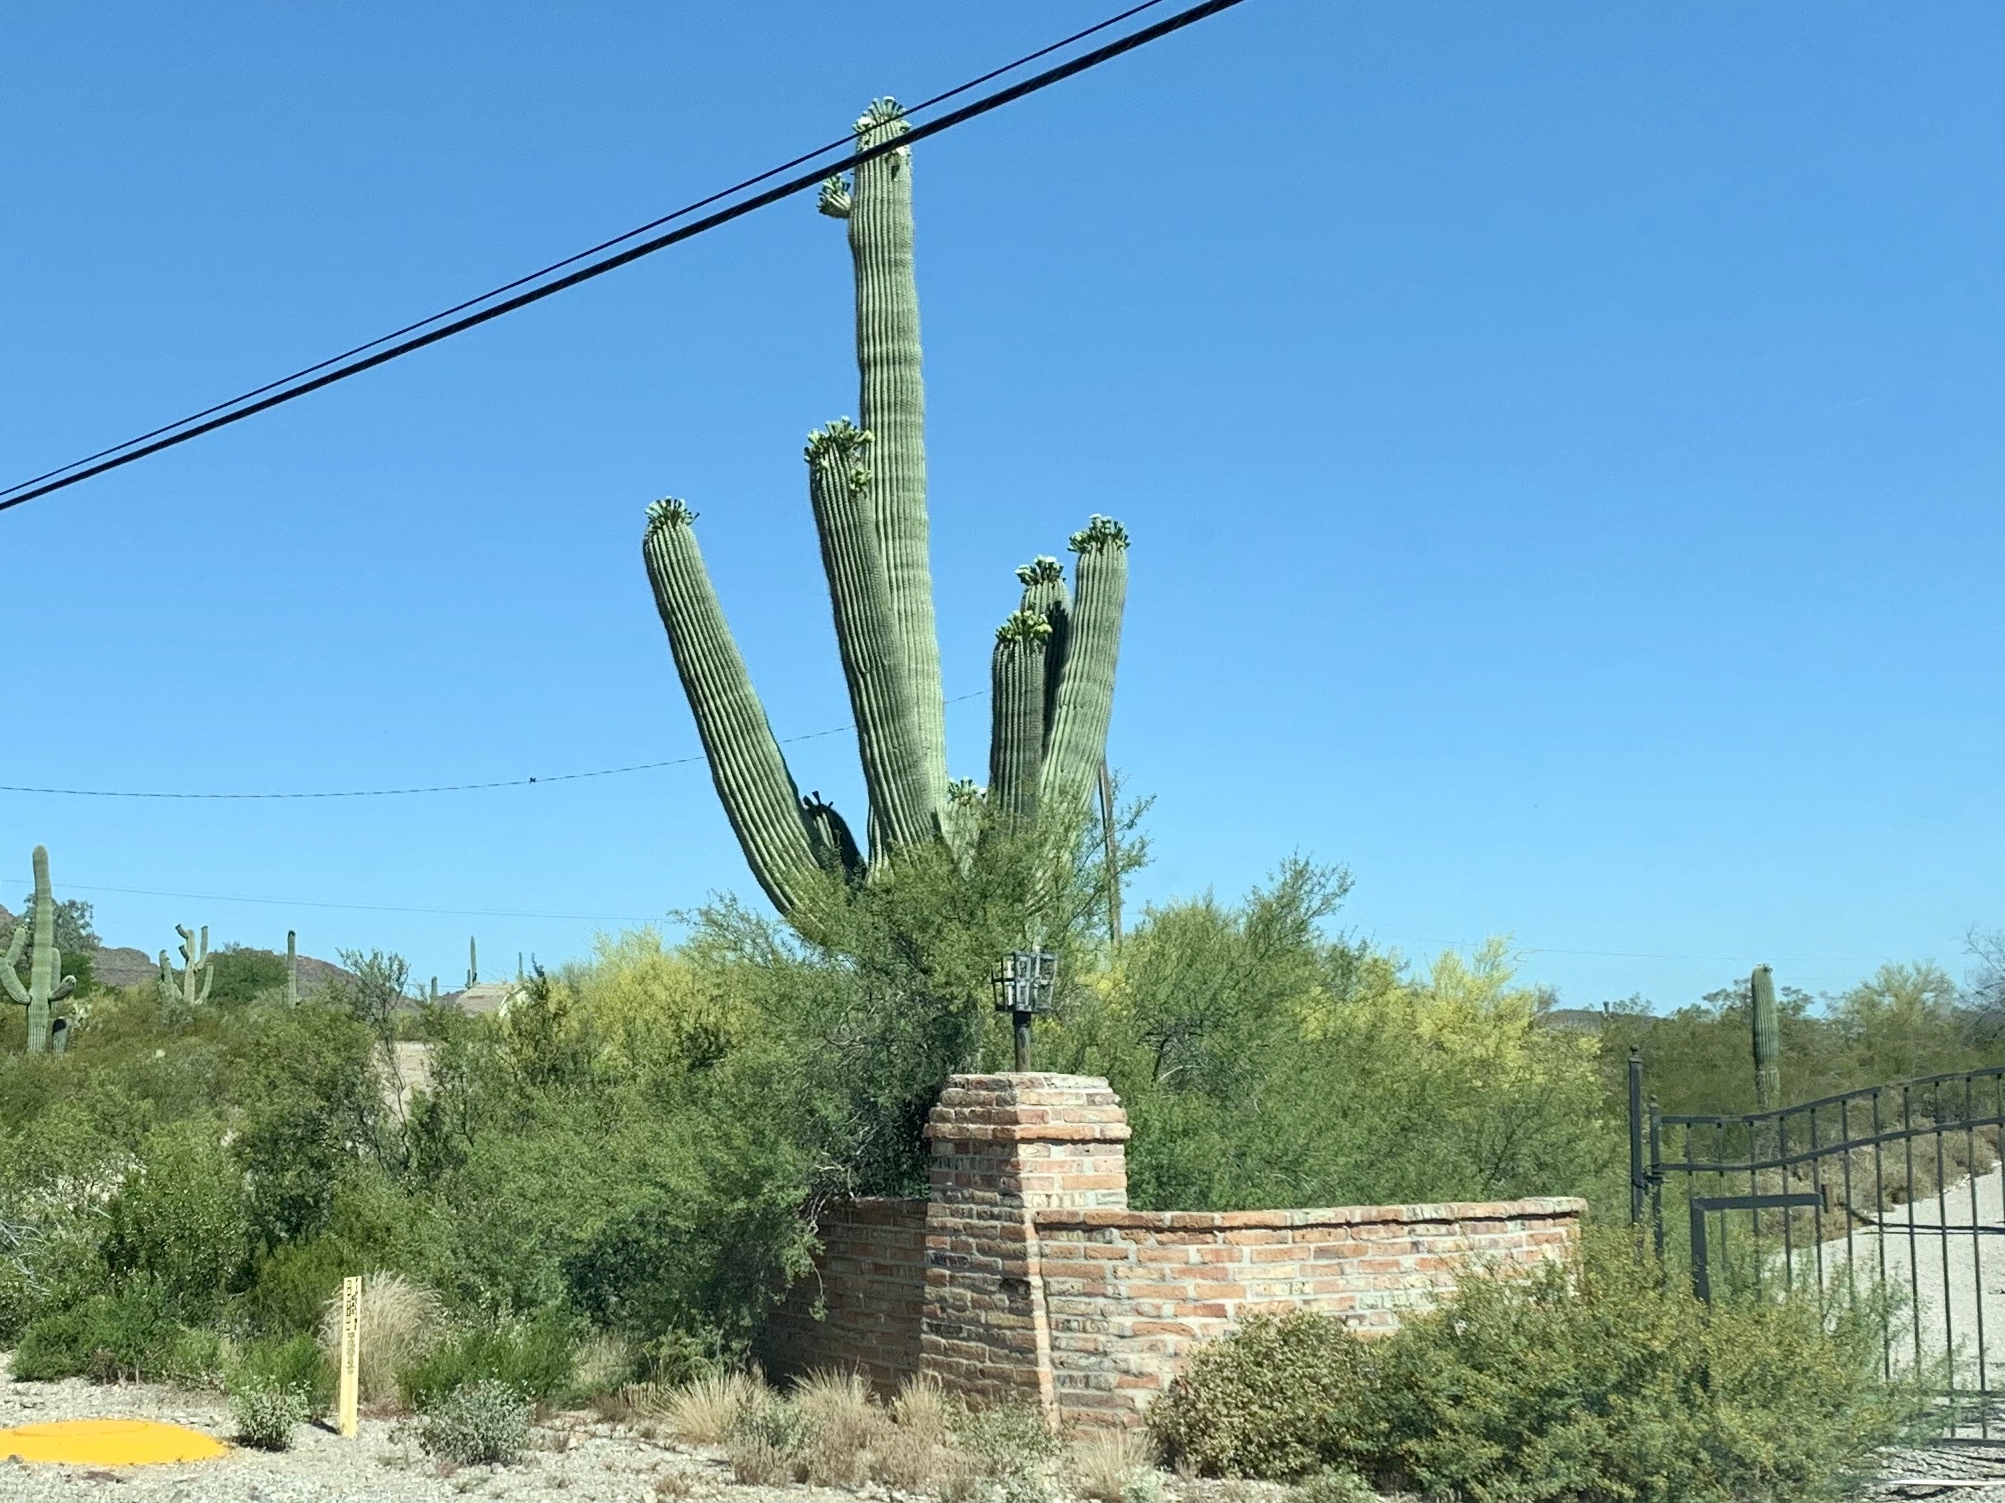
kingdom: Plantae
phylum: Tracheophyta
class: Magnoliopsida
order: Caryophyllales
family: Cactaceae
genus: Carnegiea
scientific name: Carnegiea gigantea
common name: Saguaro
